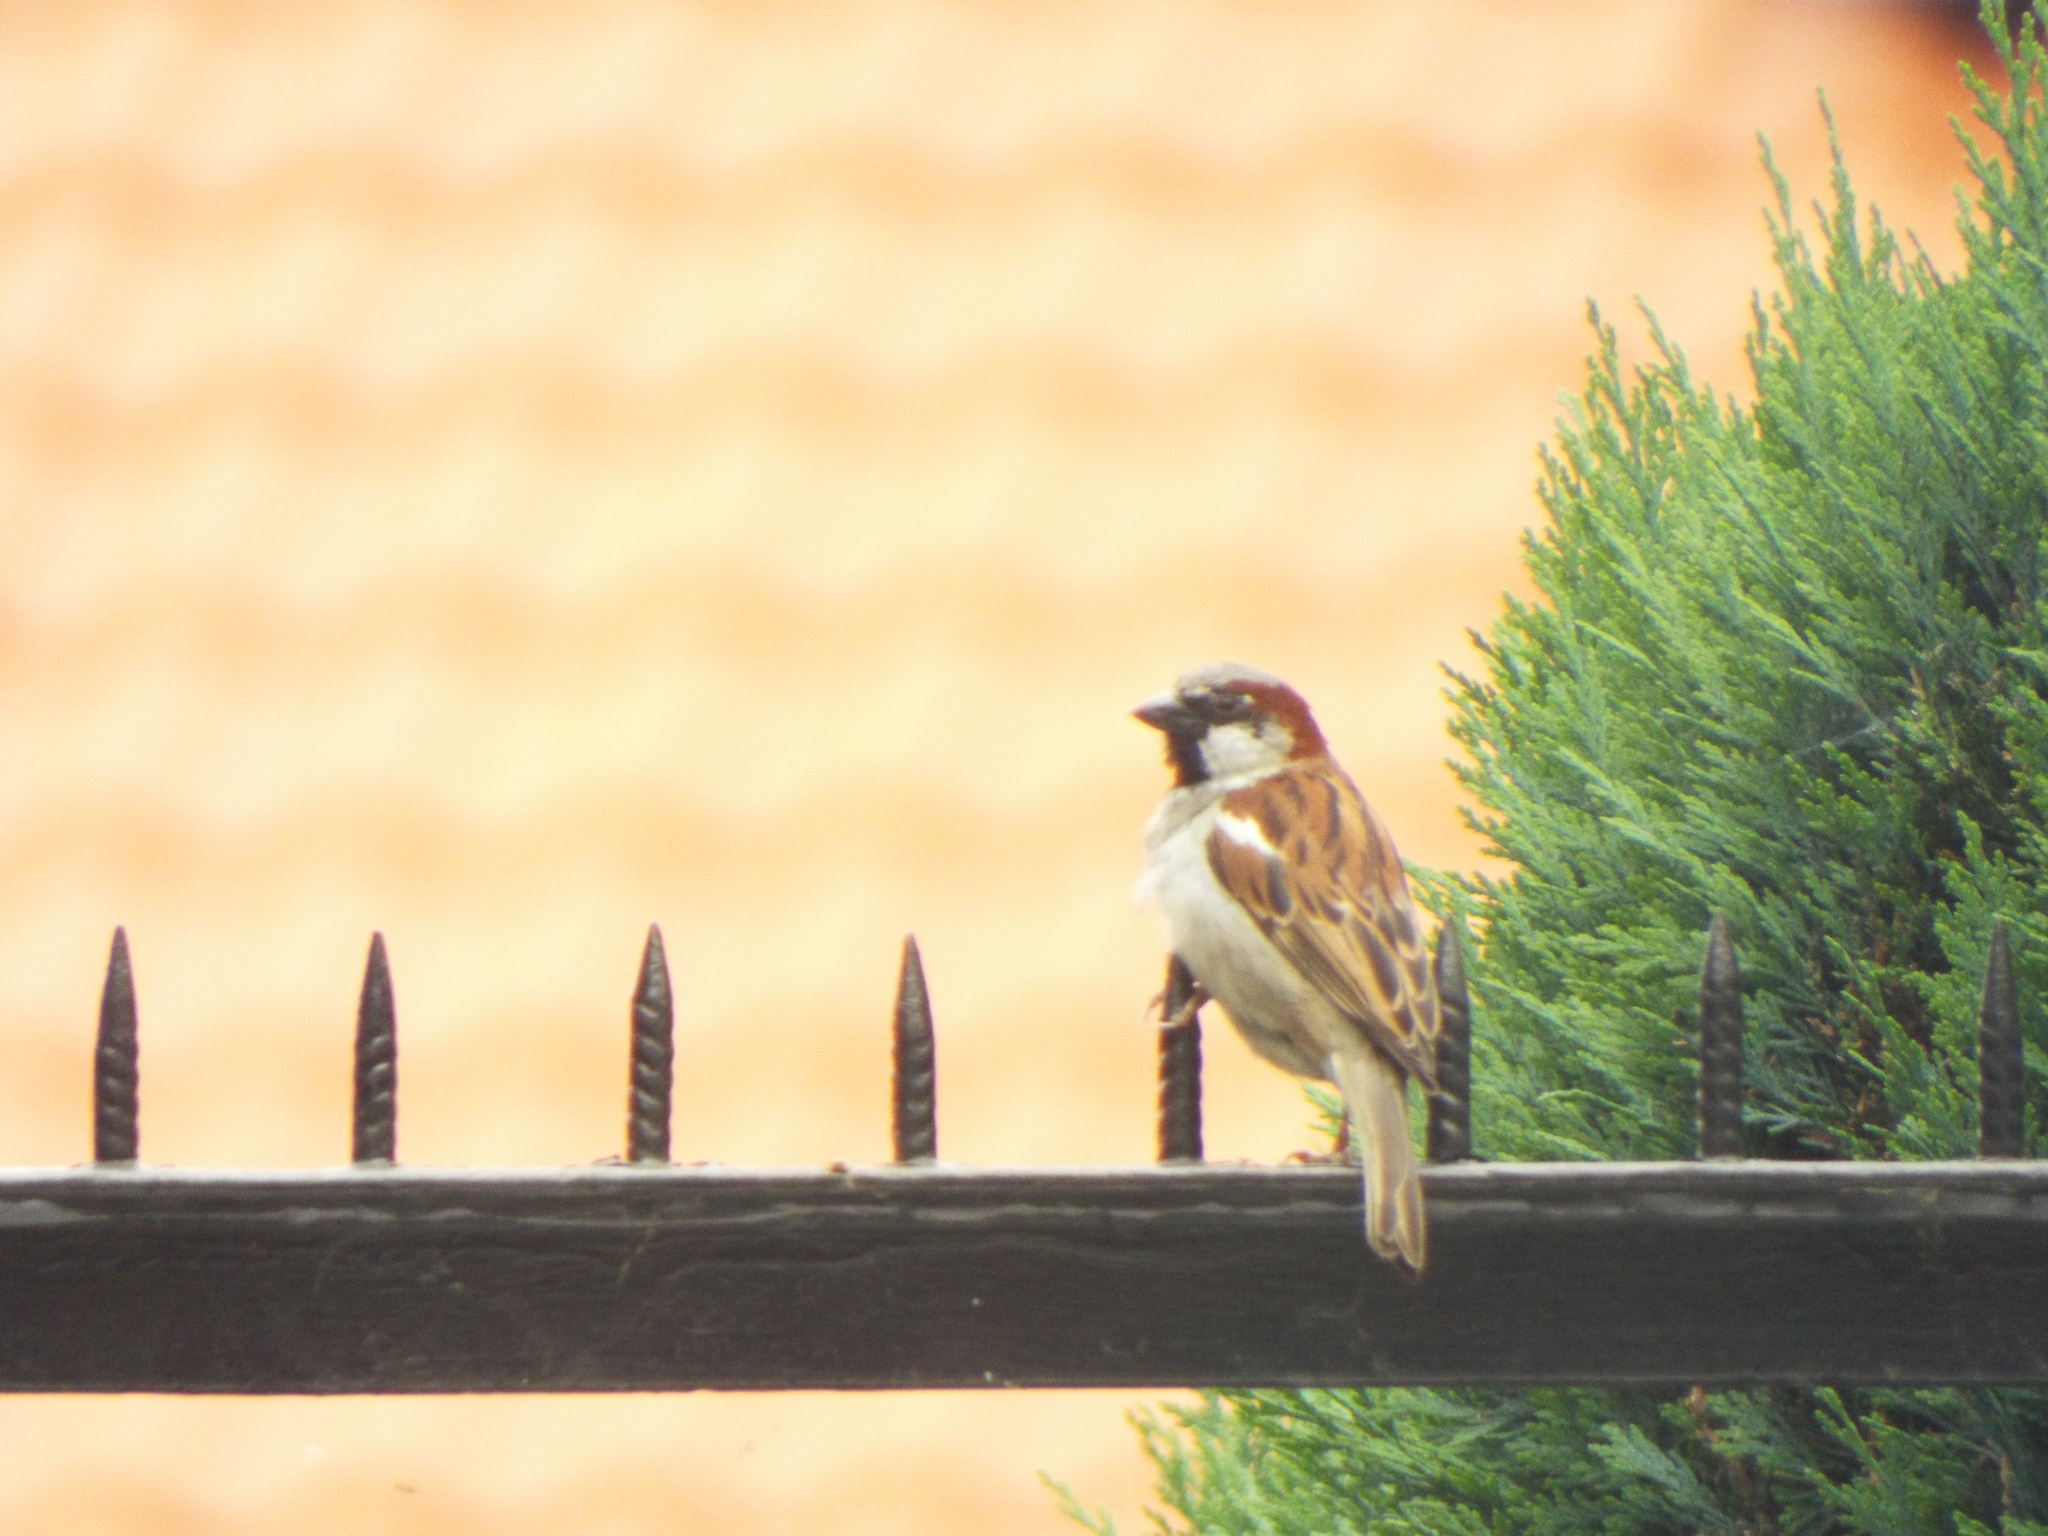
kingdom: Animalia
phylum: Chordata
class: Aves
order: Passeriformes
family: Passeridae
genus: Passer
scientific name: Passer domesticus
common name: House sparrow
